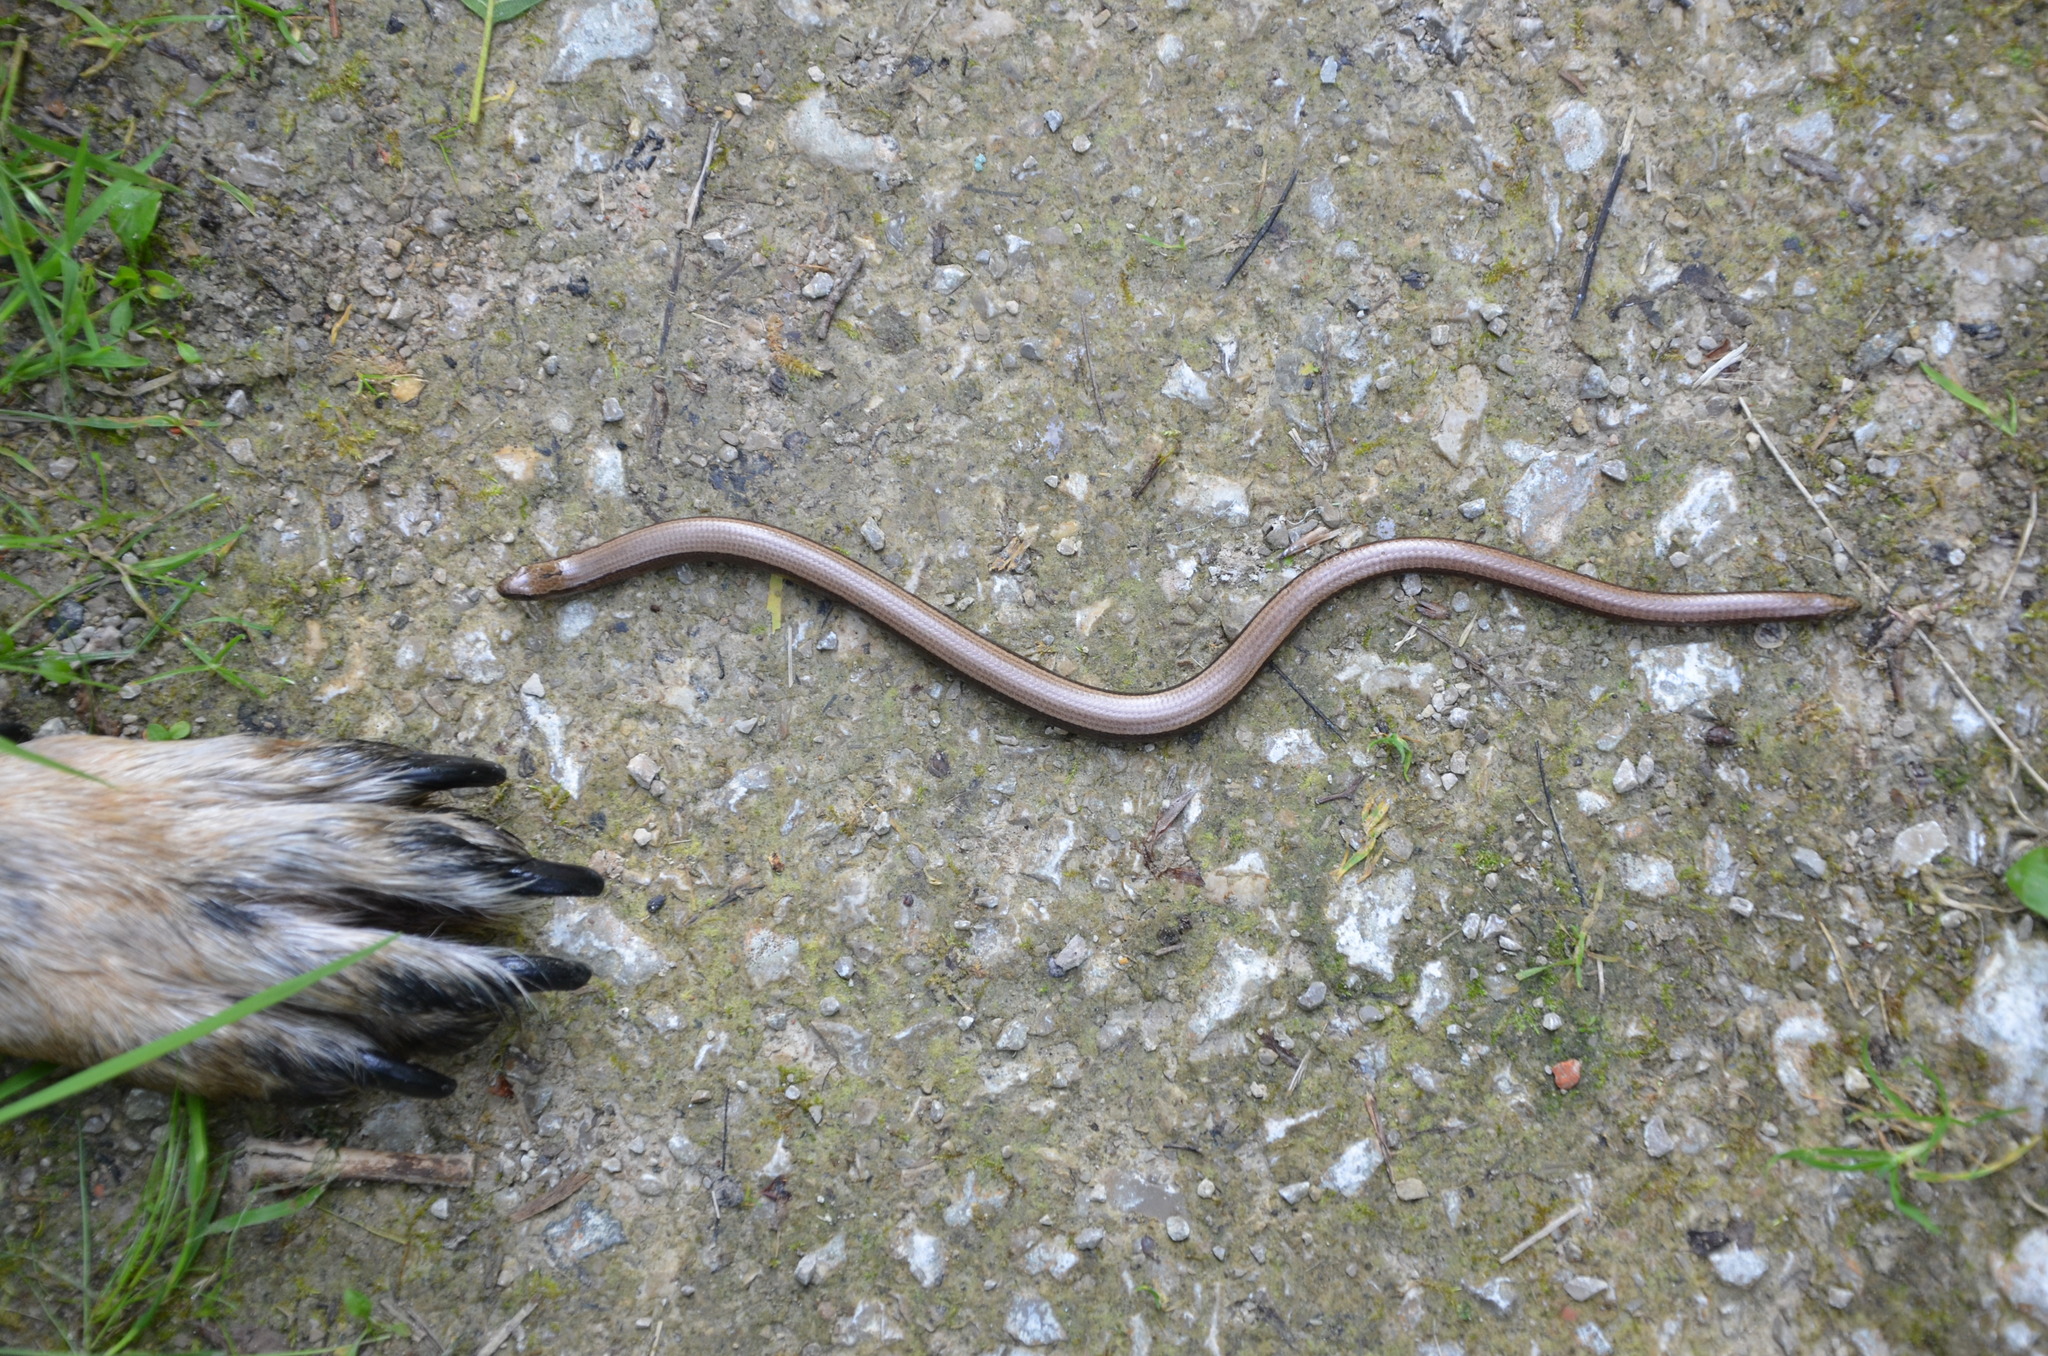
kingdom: Animalia
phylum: Chordata
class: Squamata
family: Anguidae
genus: Anguis
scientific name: Anguis fragilis
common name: Slow worm
